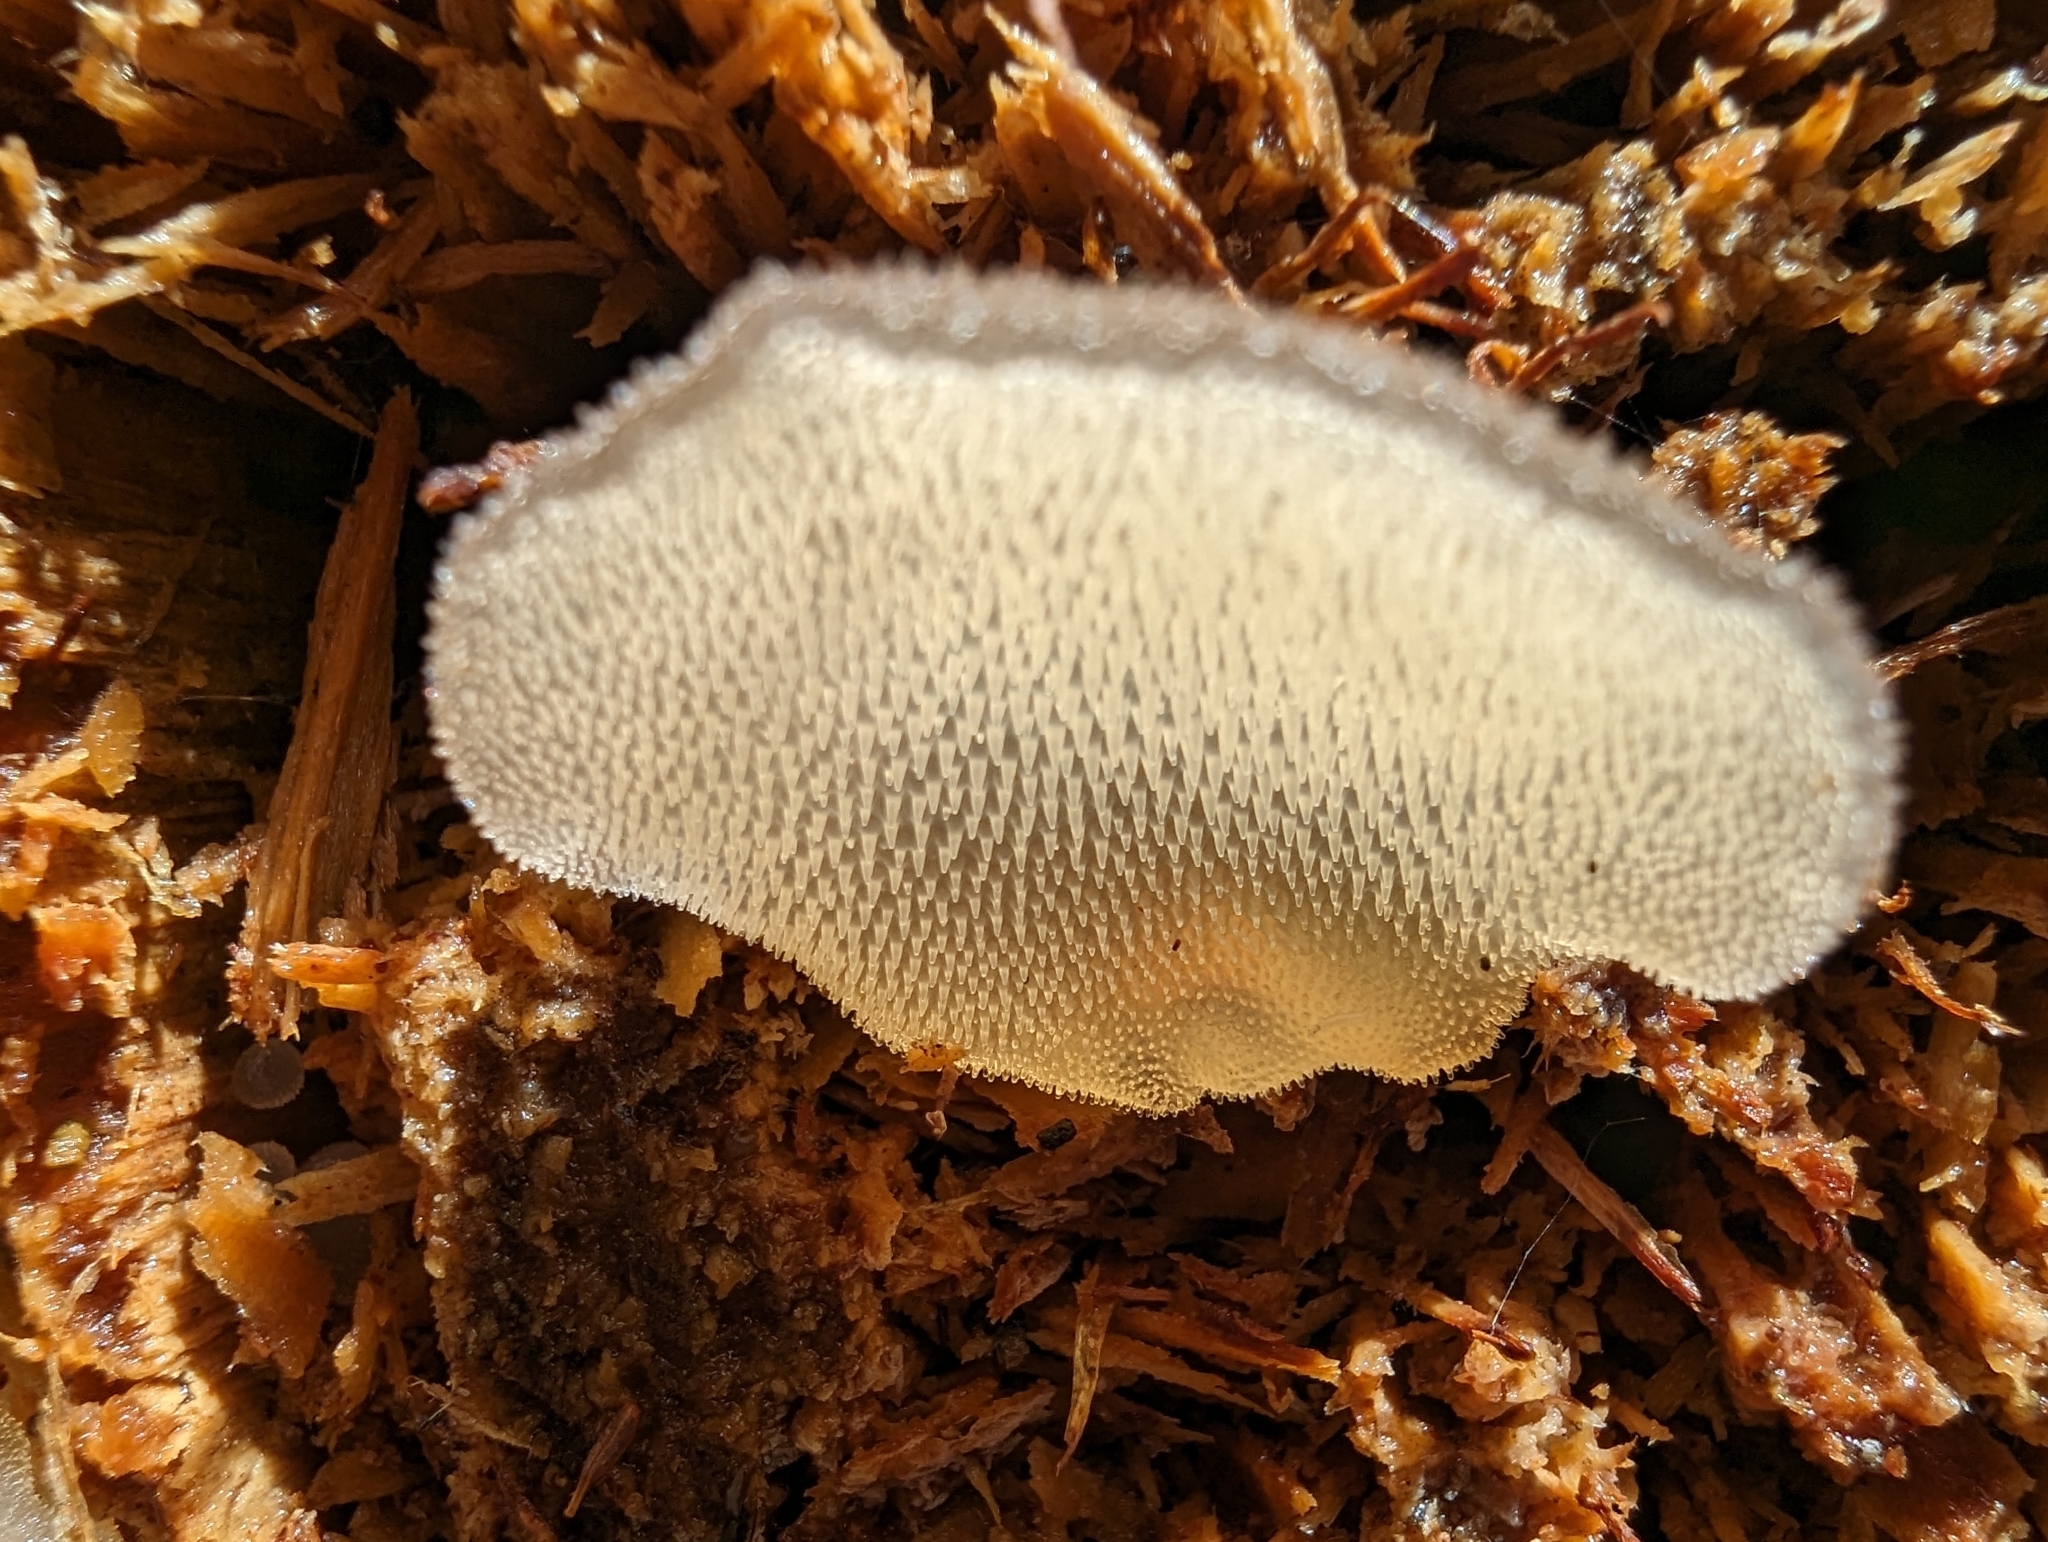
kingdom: Fungi
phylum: Basidiomycota
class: Agaricomycetes
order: Auriculariales
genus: Pseudohydnum
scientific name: Pseudohydnum gelatinosum
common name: Jelly tongue
